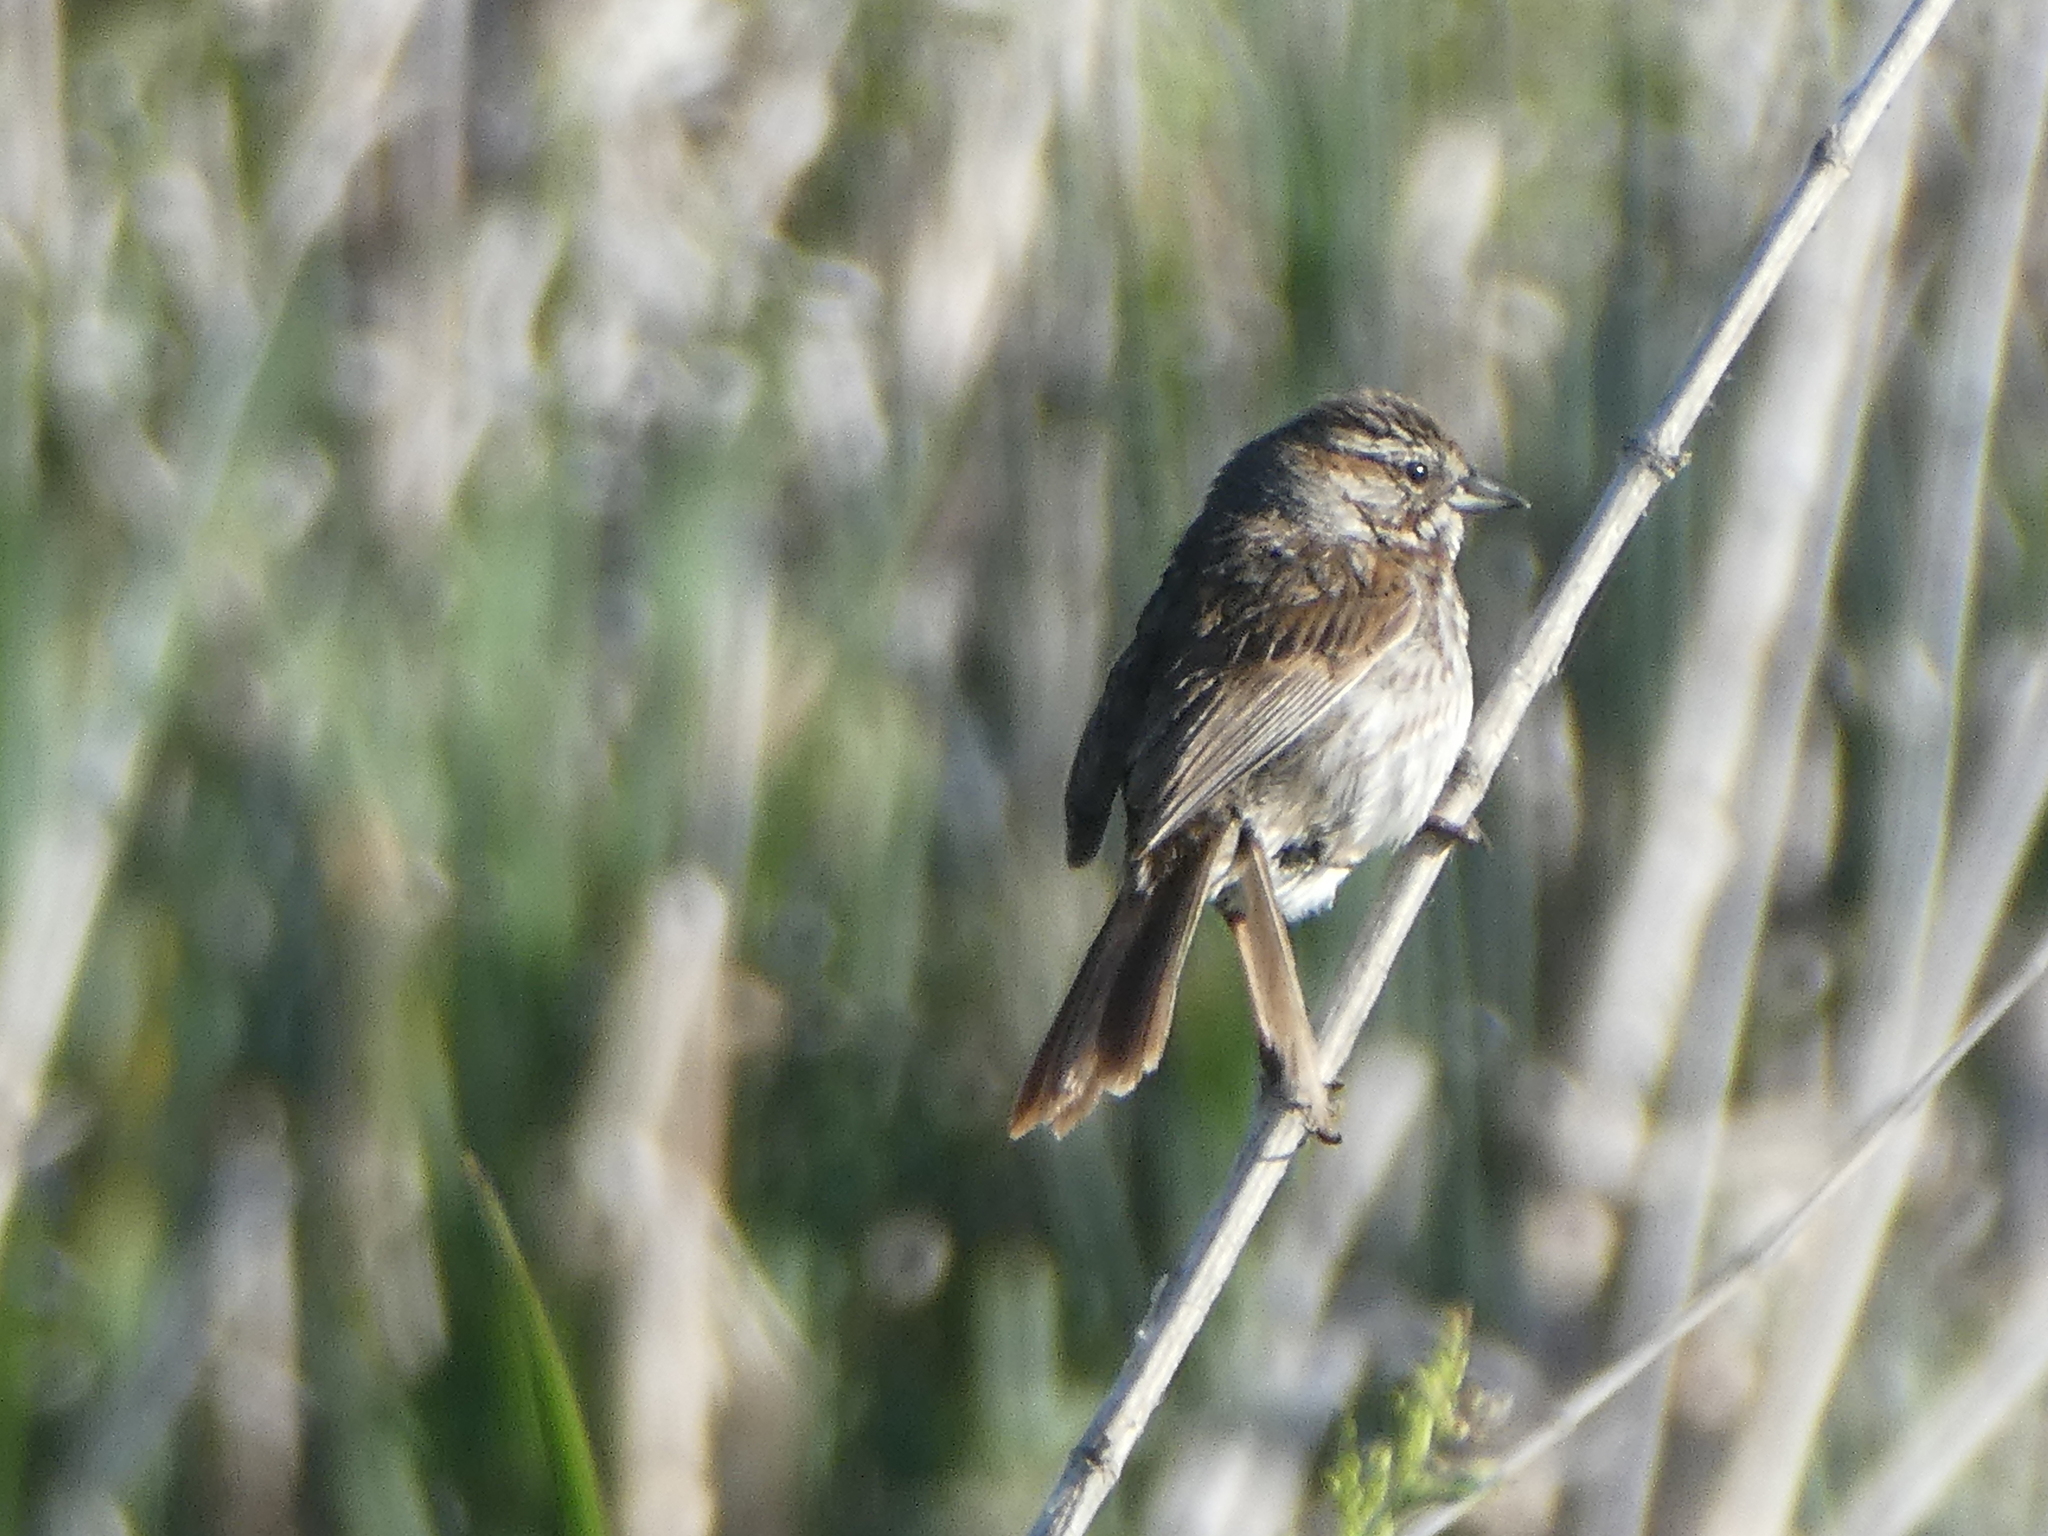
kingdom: Animalia
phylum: Chordata
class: Aves
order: Passeriformes
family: Passerellidae
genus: Melospiza
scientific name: Melospiza melodia
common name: Song sparrow
